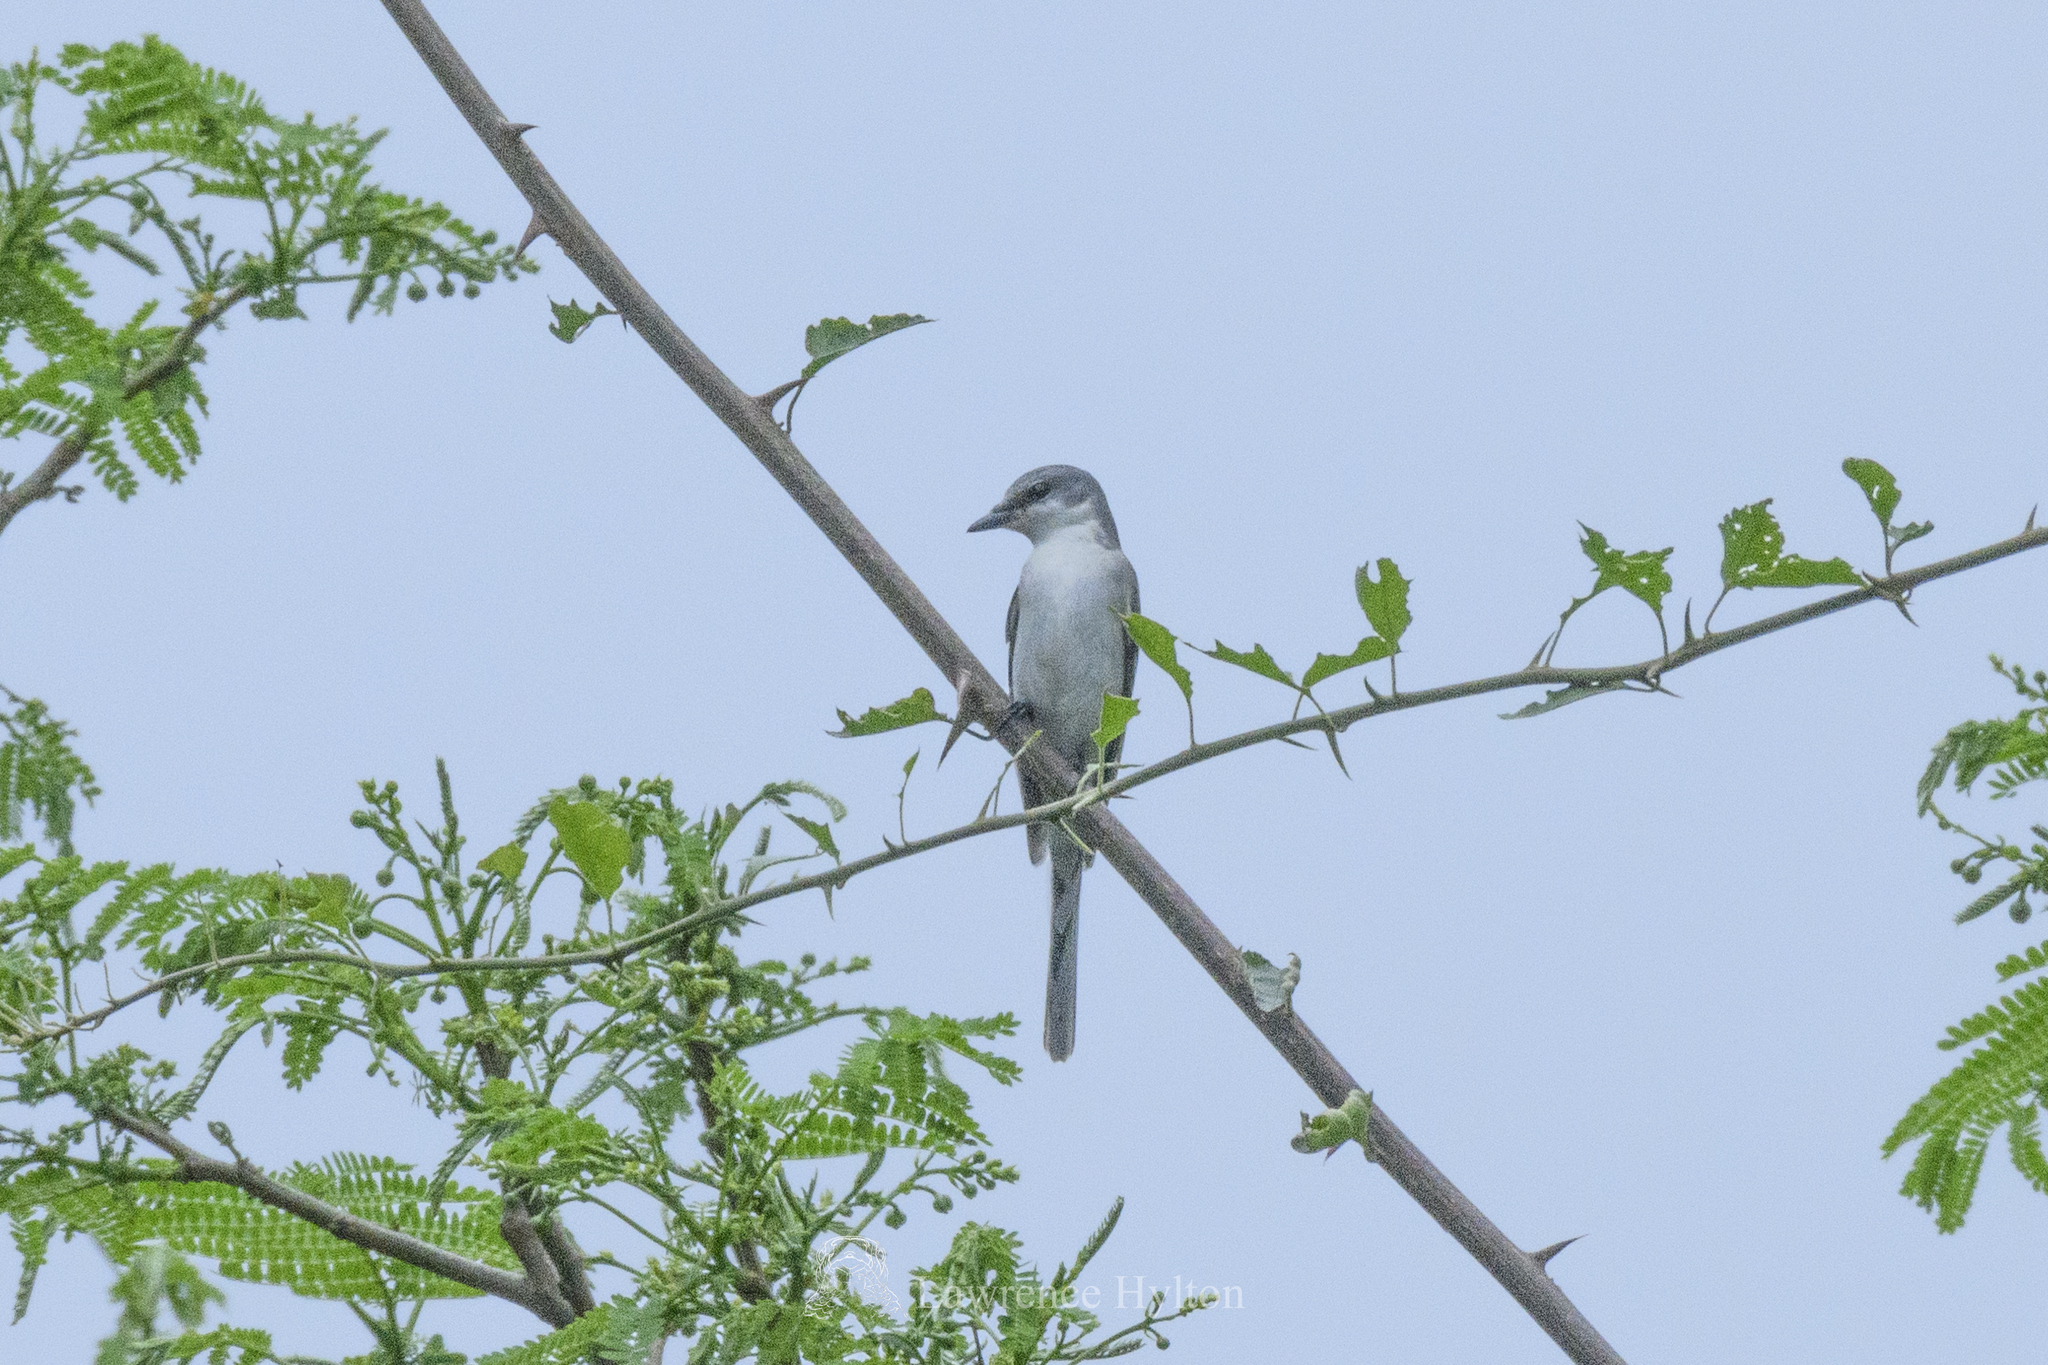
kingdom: Animalia
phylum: Chordata
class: Aves
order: Passeriformes
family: Campephagidae
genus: Pericrocotus
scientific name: Pericrocotus divaricatus
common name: Ashy minivet
